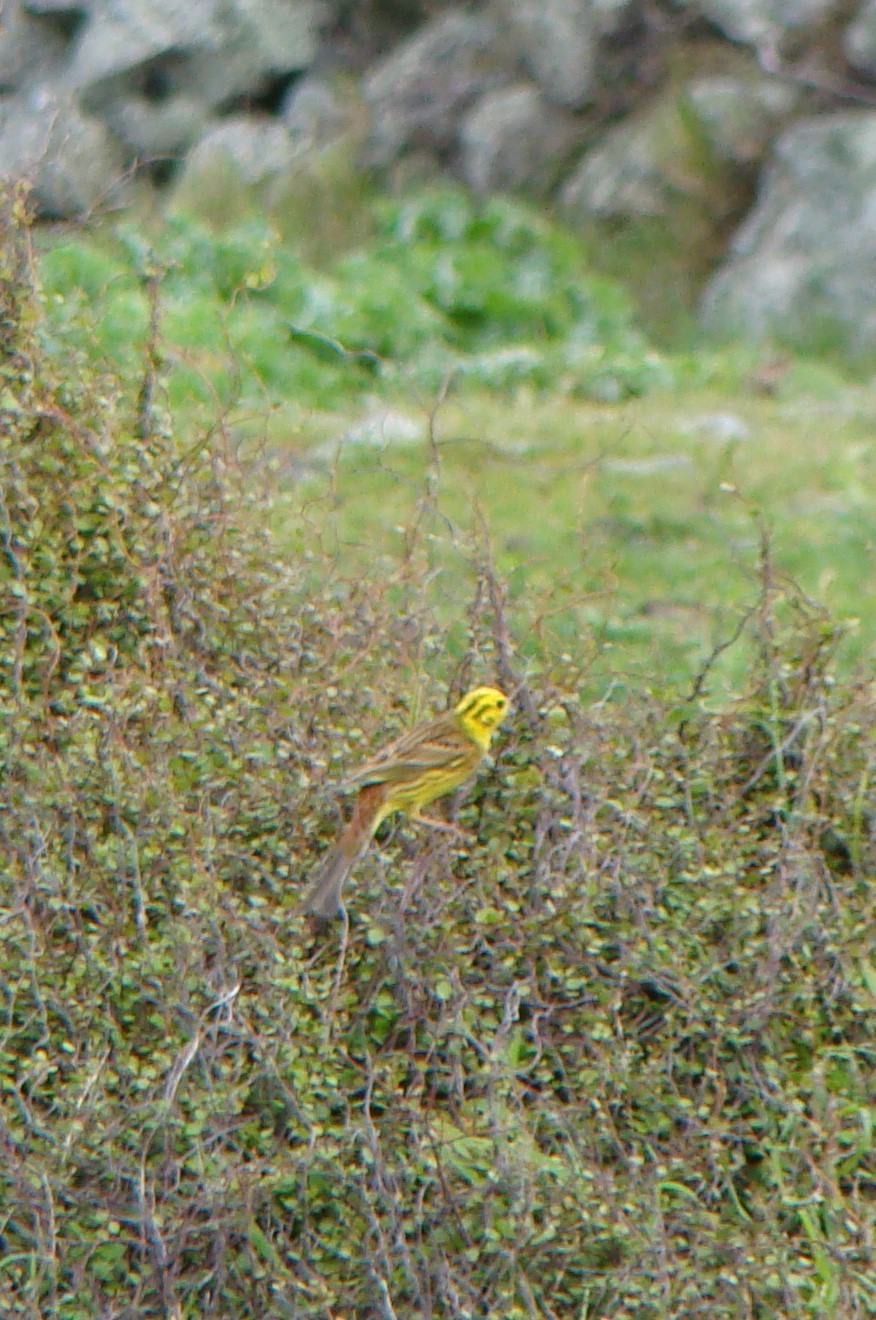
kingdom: Animalia
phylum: Chordata
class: Aves
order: Passeriformes
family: Emberizidae
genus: Emberiza
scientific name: Emberiza citrinella
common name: Yellowhammer
